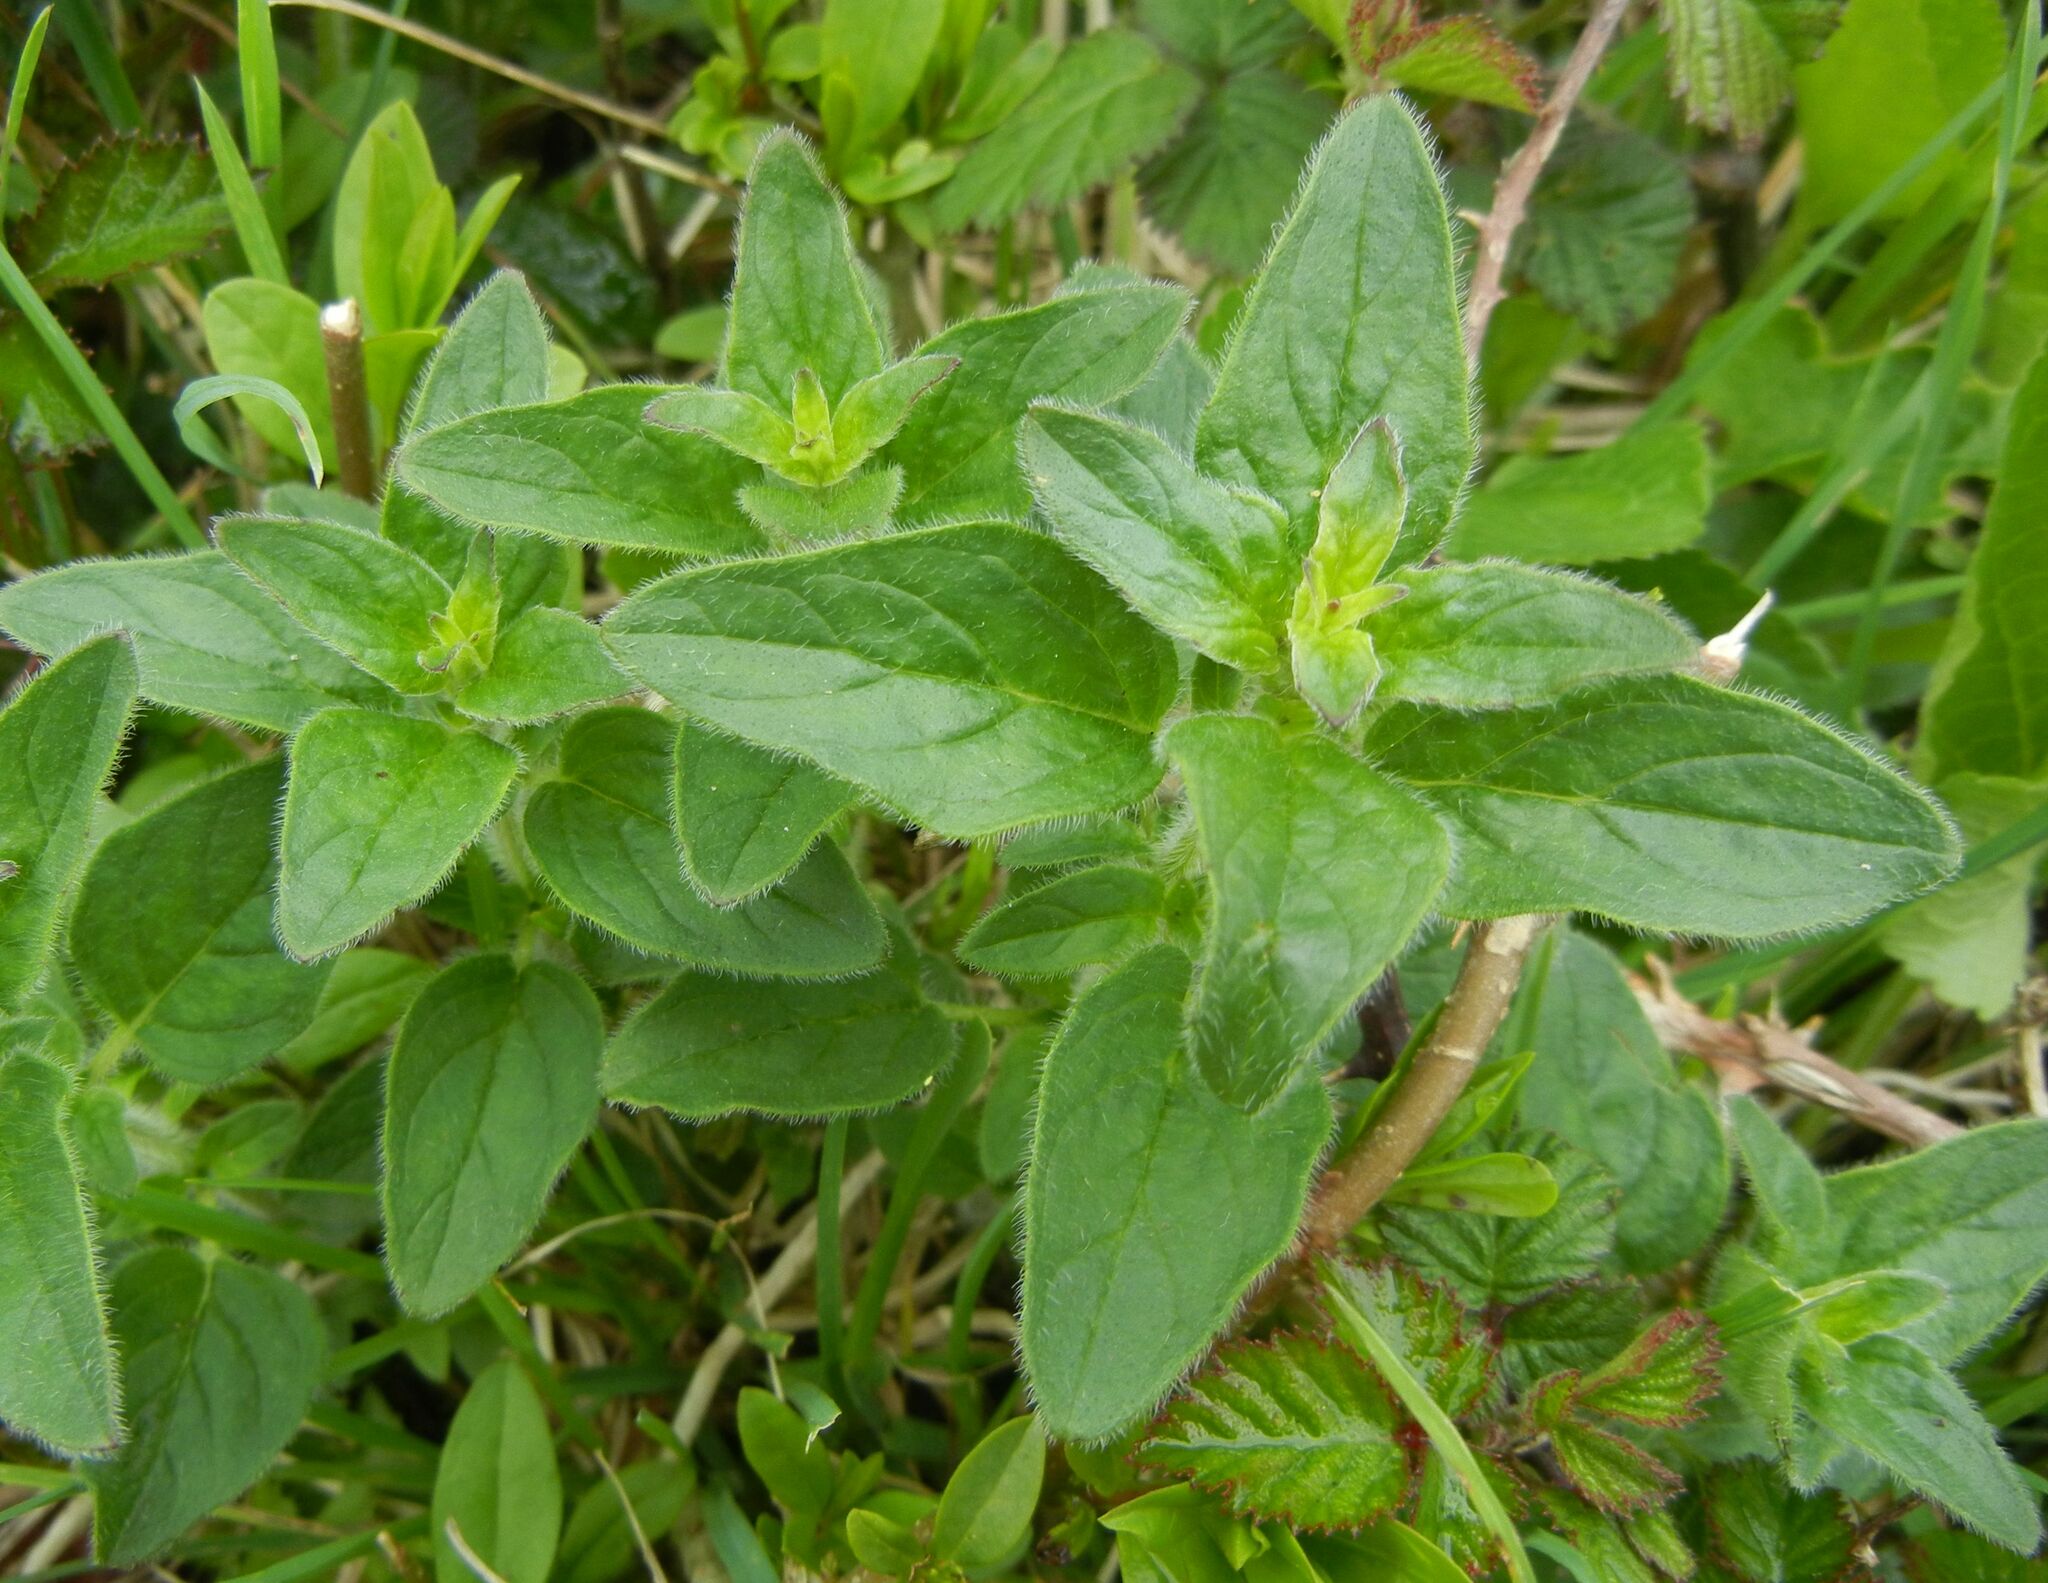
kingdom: Plantae
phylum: Tracheophyta
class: Magnoliopsida
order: Lamiales
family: Lamiaceae
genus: Origanum
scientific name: Origanum vulgare
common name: Wild marjoram
